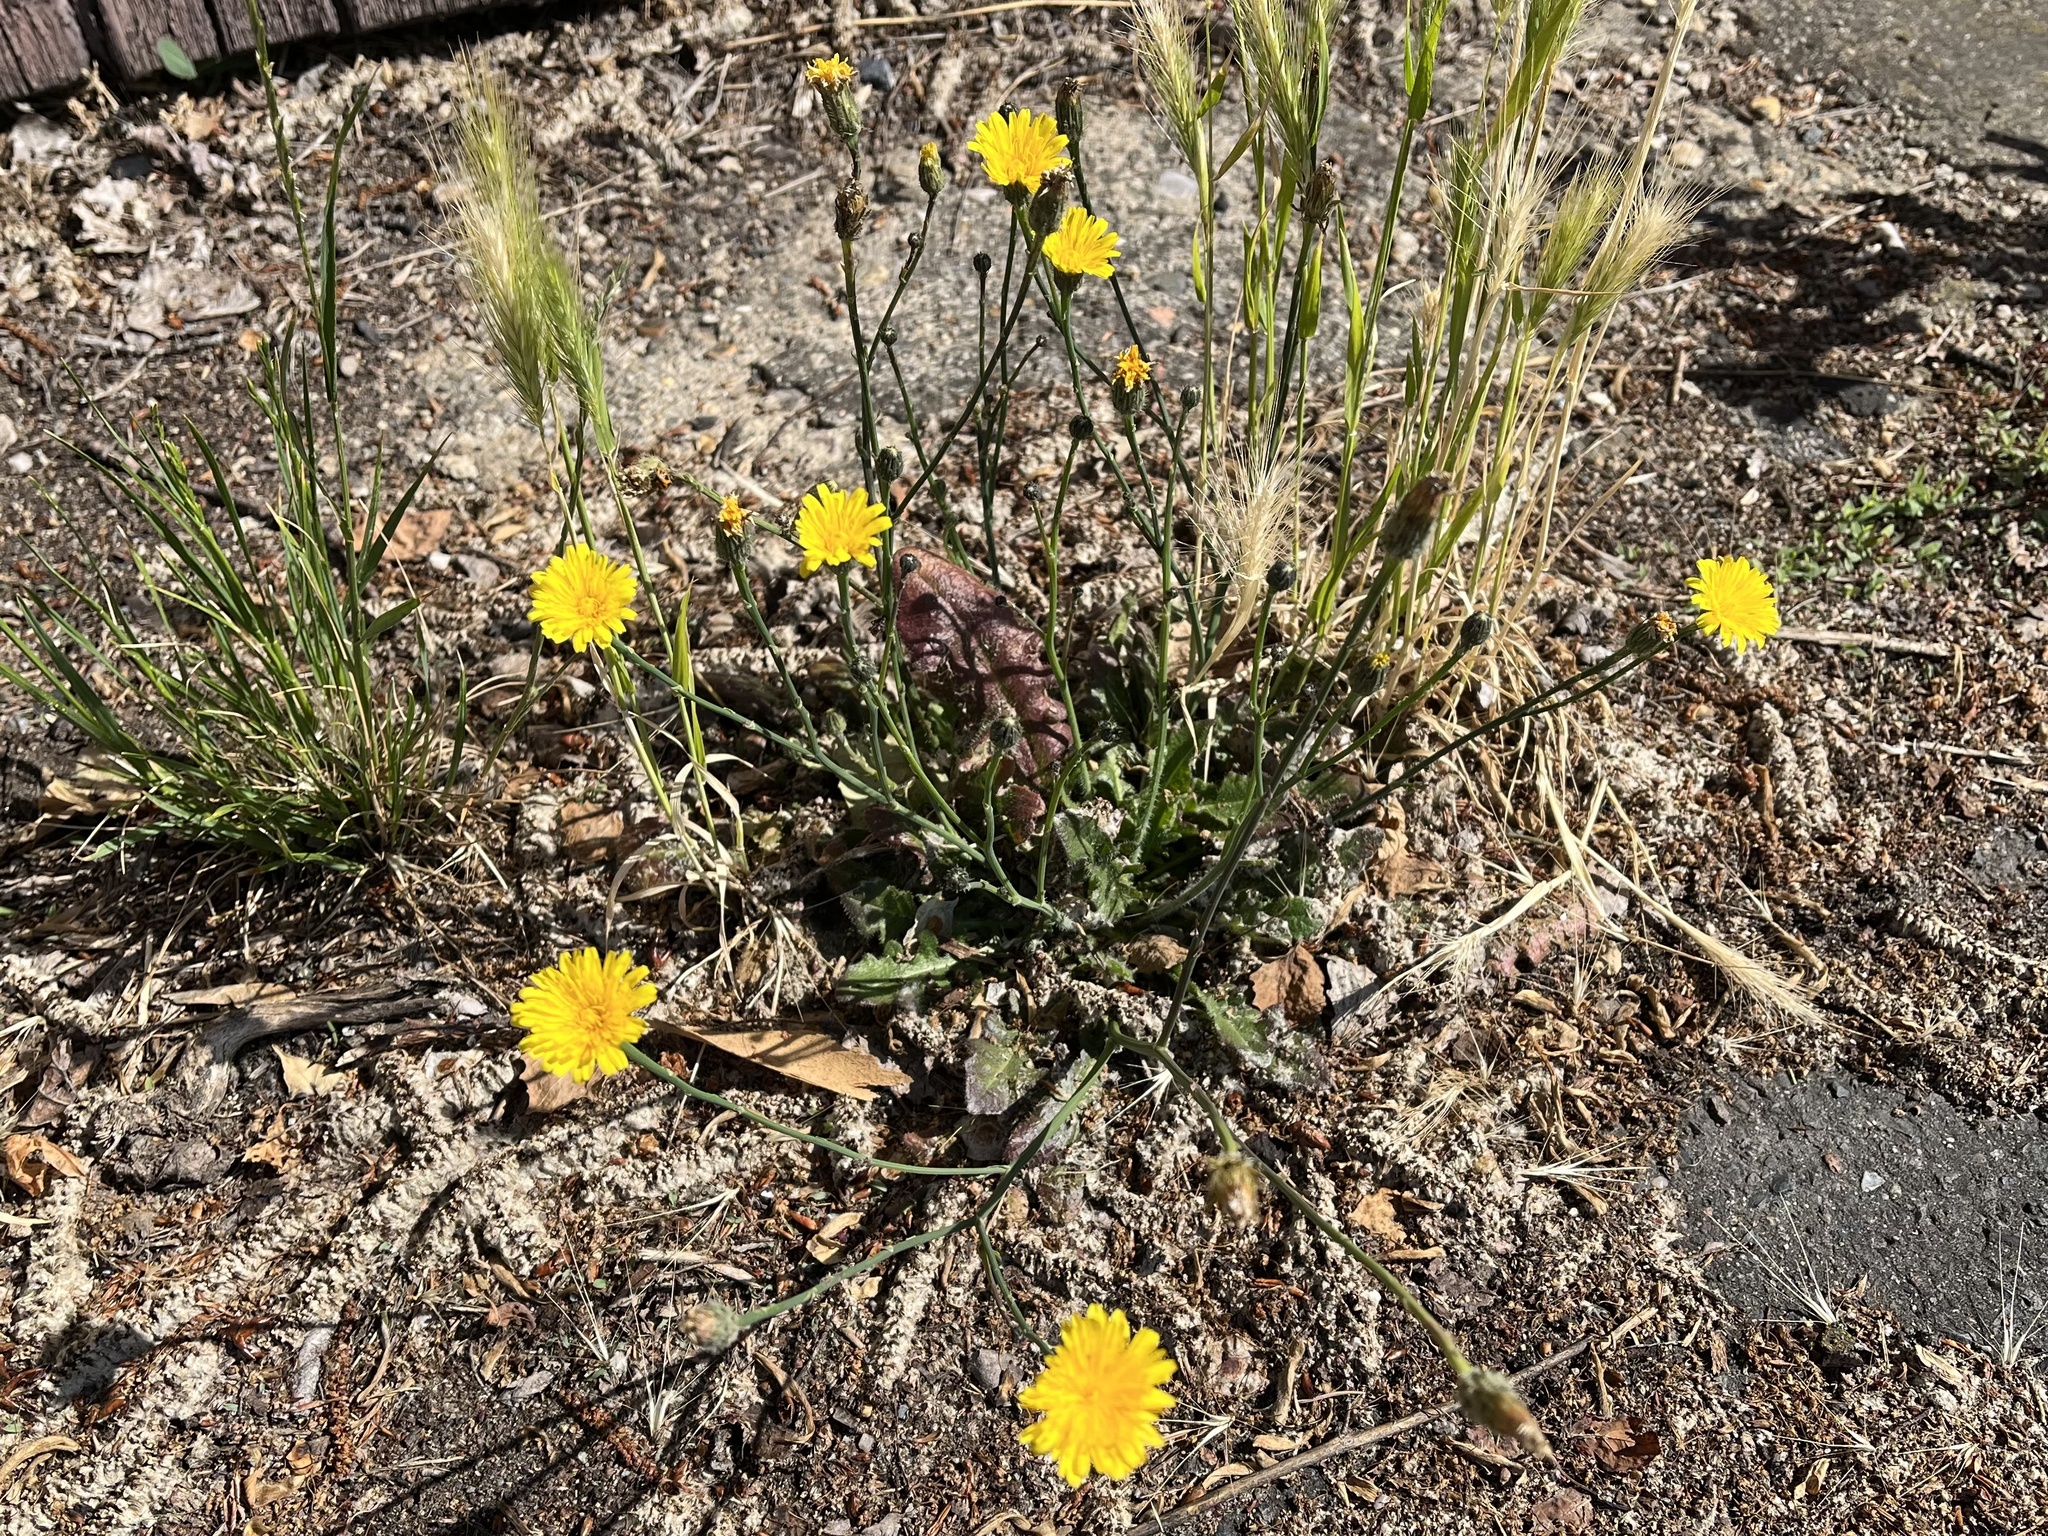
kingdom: Plantae
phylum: Tracheophyta
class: Magnoliopsida
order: Asterales
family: Asteraceae
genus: Hypochaeris
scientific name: Hypochaeris radicata
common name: Flatweed
